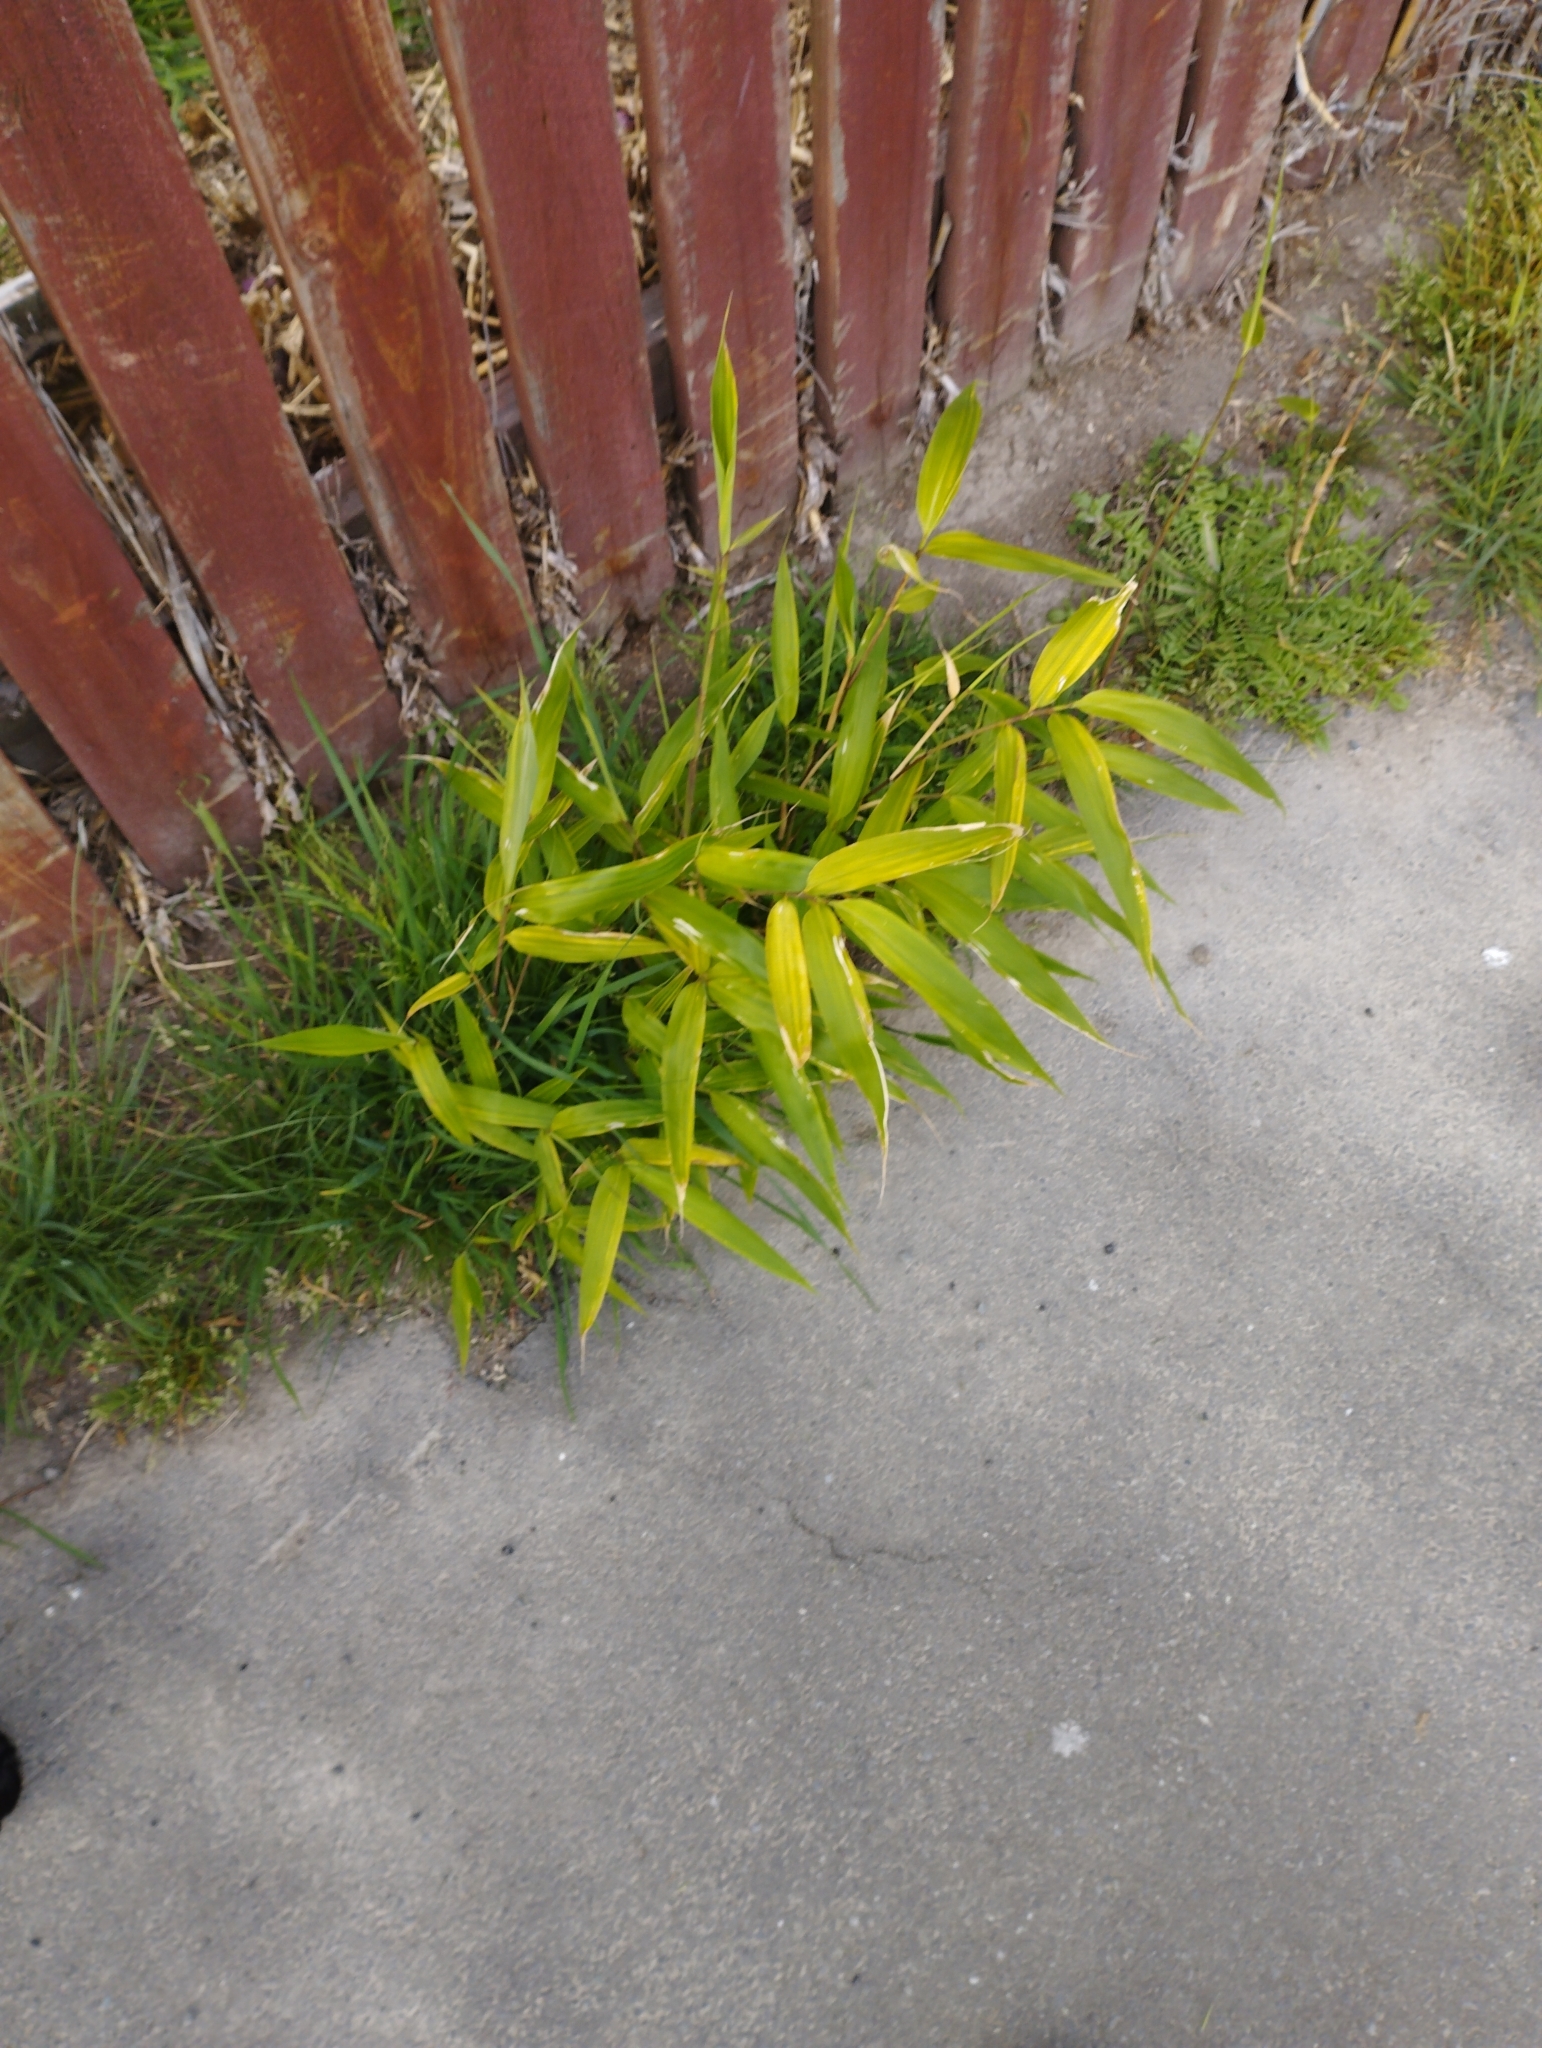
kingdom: Plantae
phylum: Tracheophyta
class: Liliopsida
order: Poales
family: Poaceae
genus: Pseudosasa
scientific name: Pseudosasa japonica
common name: Arrow bamboo
